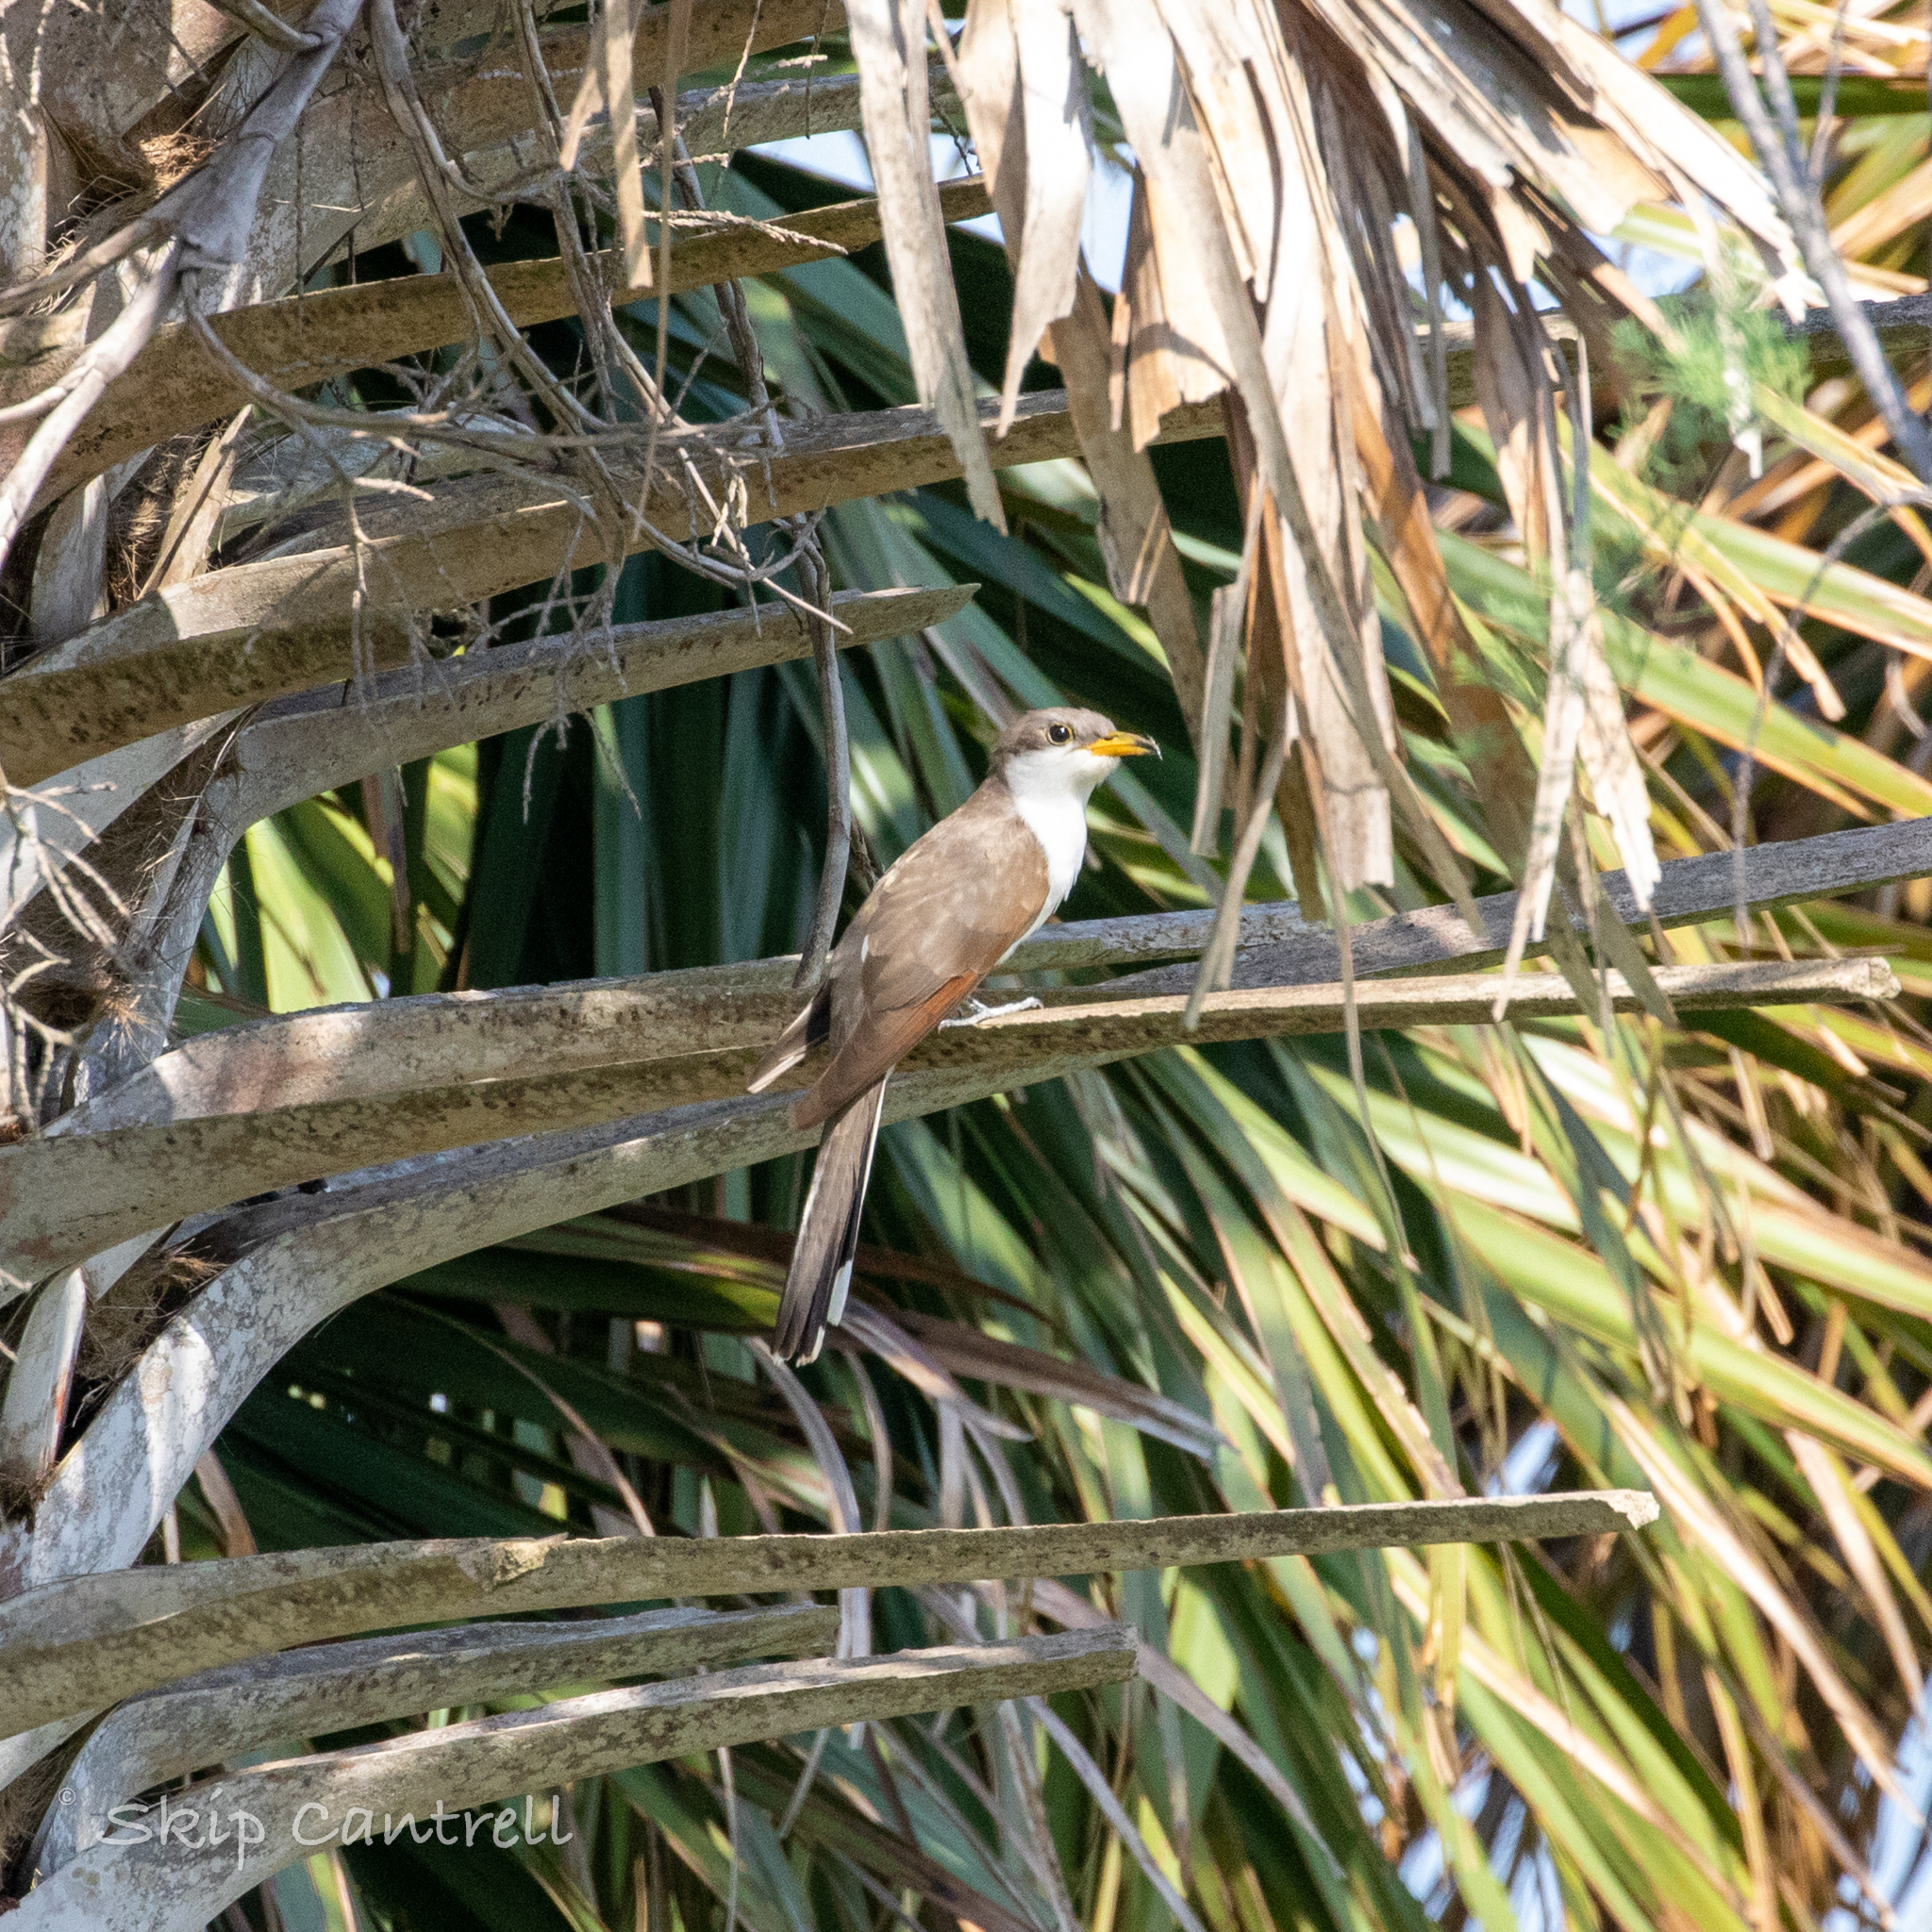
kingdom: Animalia
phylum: Chordata
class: Aves
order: Cuculiformes
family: Cuculidae
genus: Coccyzus
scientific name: Coccyzus americanus
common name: Yellow-billed cuckoo
